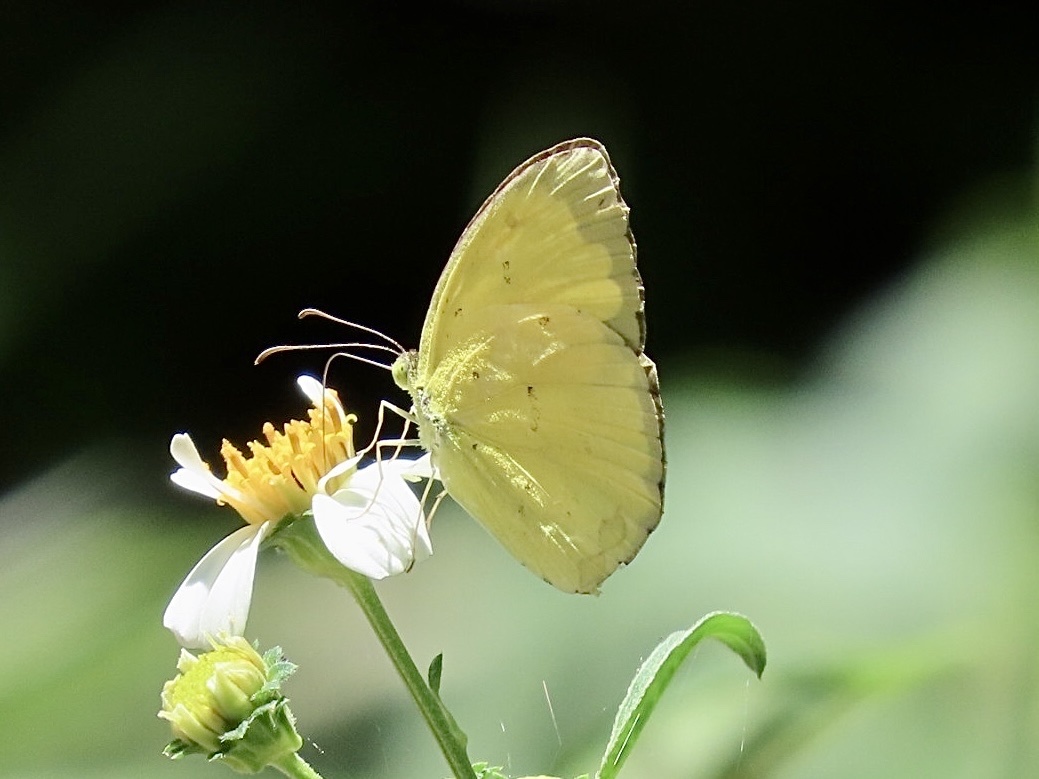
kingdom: Animalia
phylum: Arthropoda
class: Insecta
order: Lepidoptera
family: Pieridae
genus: Eurema
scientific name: Eurema hecabe
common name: Pale grass yellow
